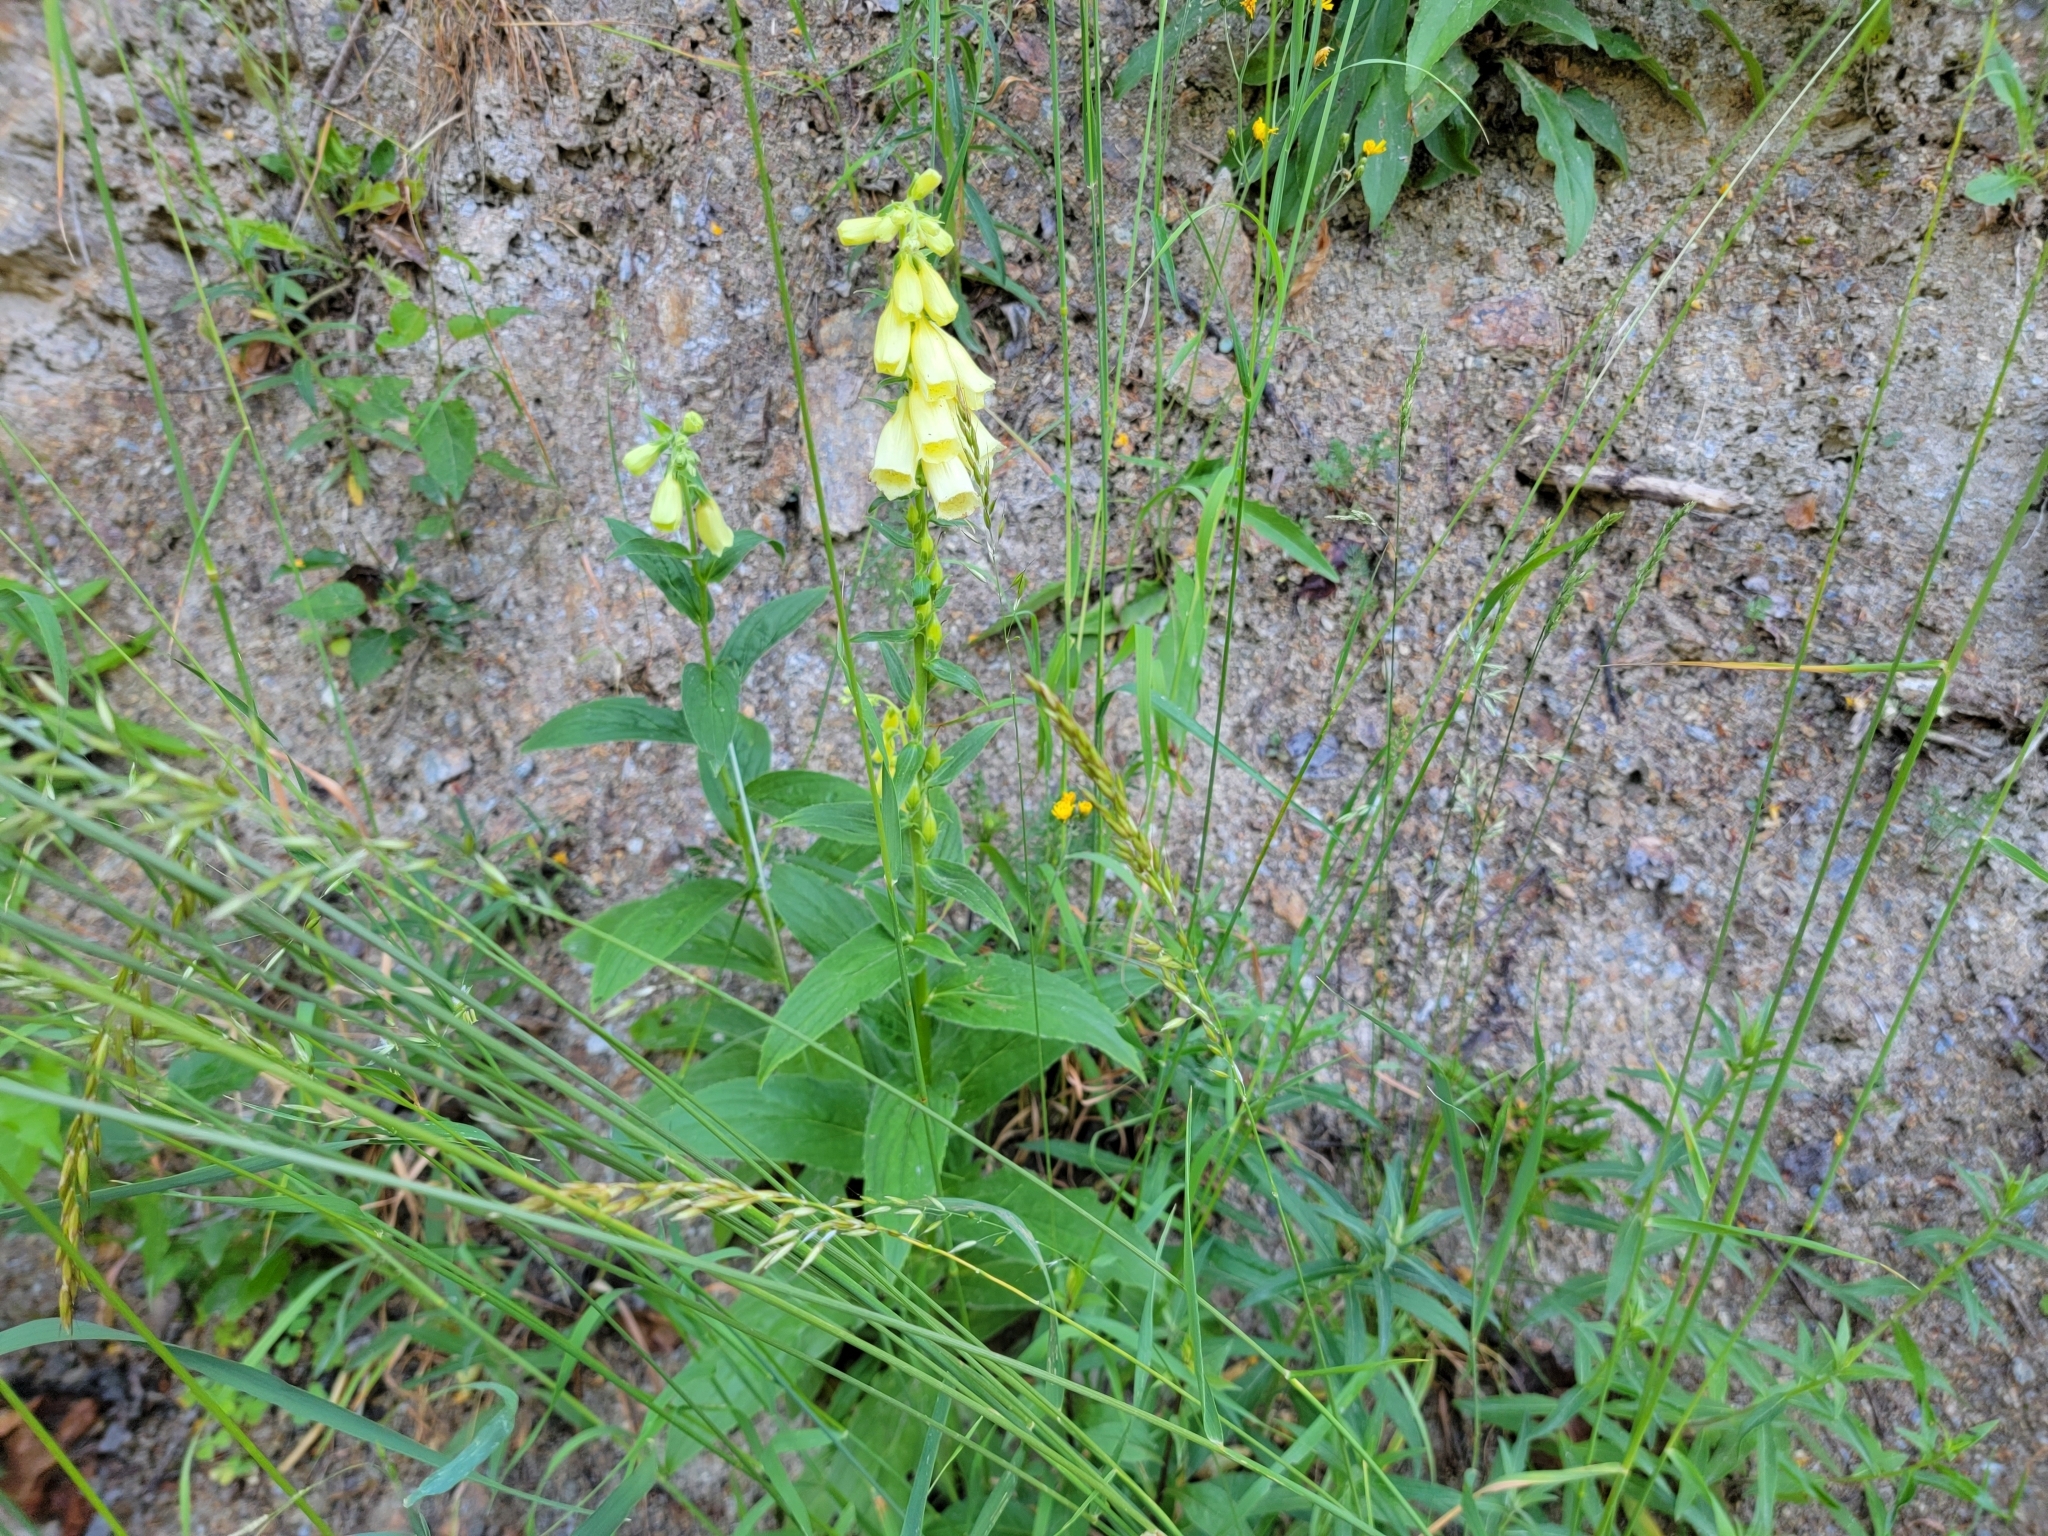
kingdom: Plantae
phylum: Tracheophyta
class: Magnoliopsida
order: Lamiales
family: Plantaginaceae
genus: Digitalis
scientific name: Digitalis grandiflora
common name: Yellow foxglove
